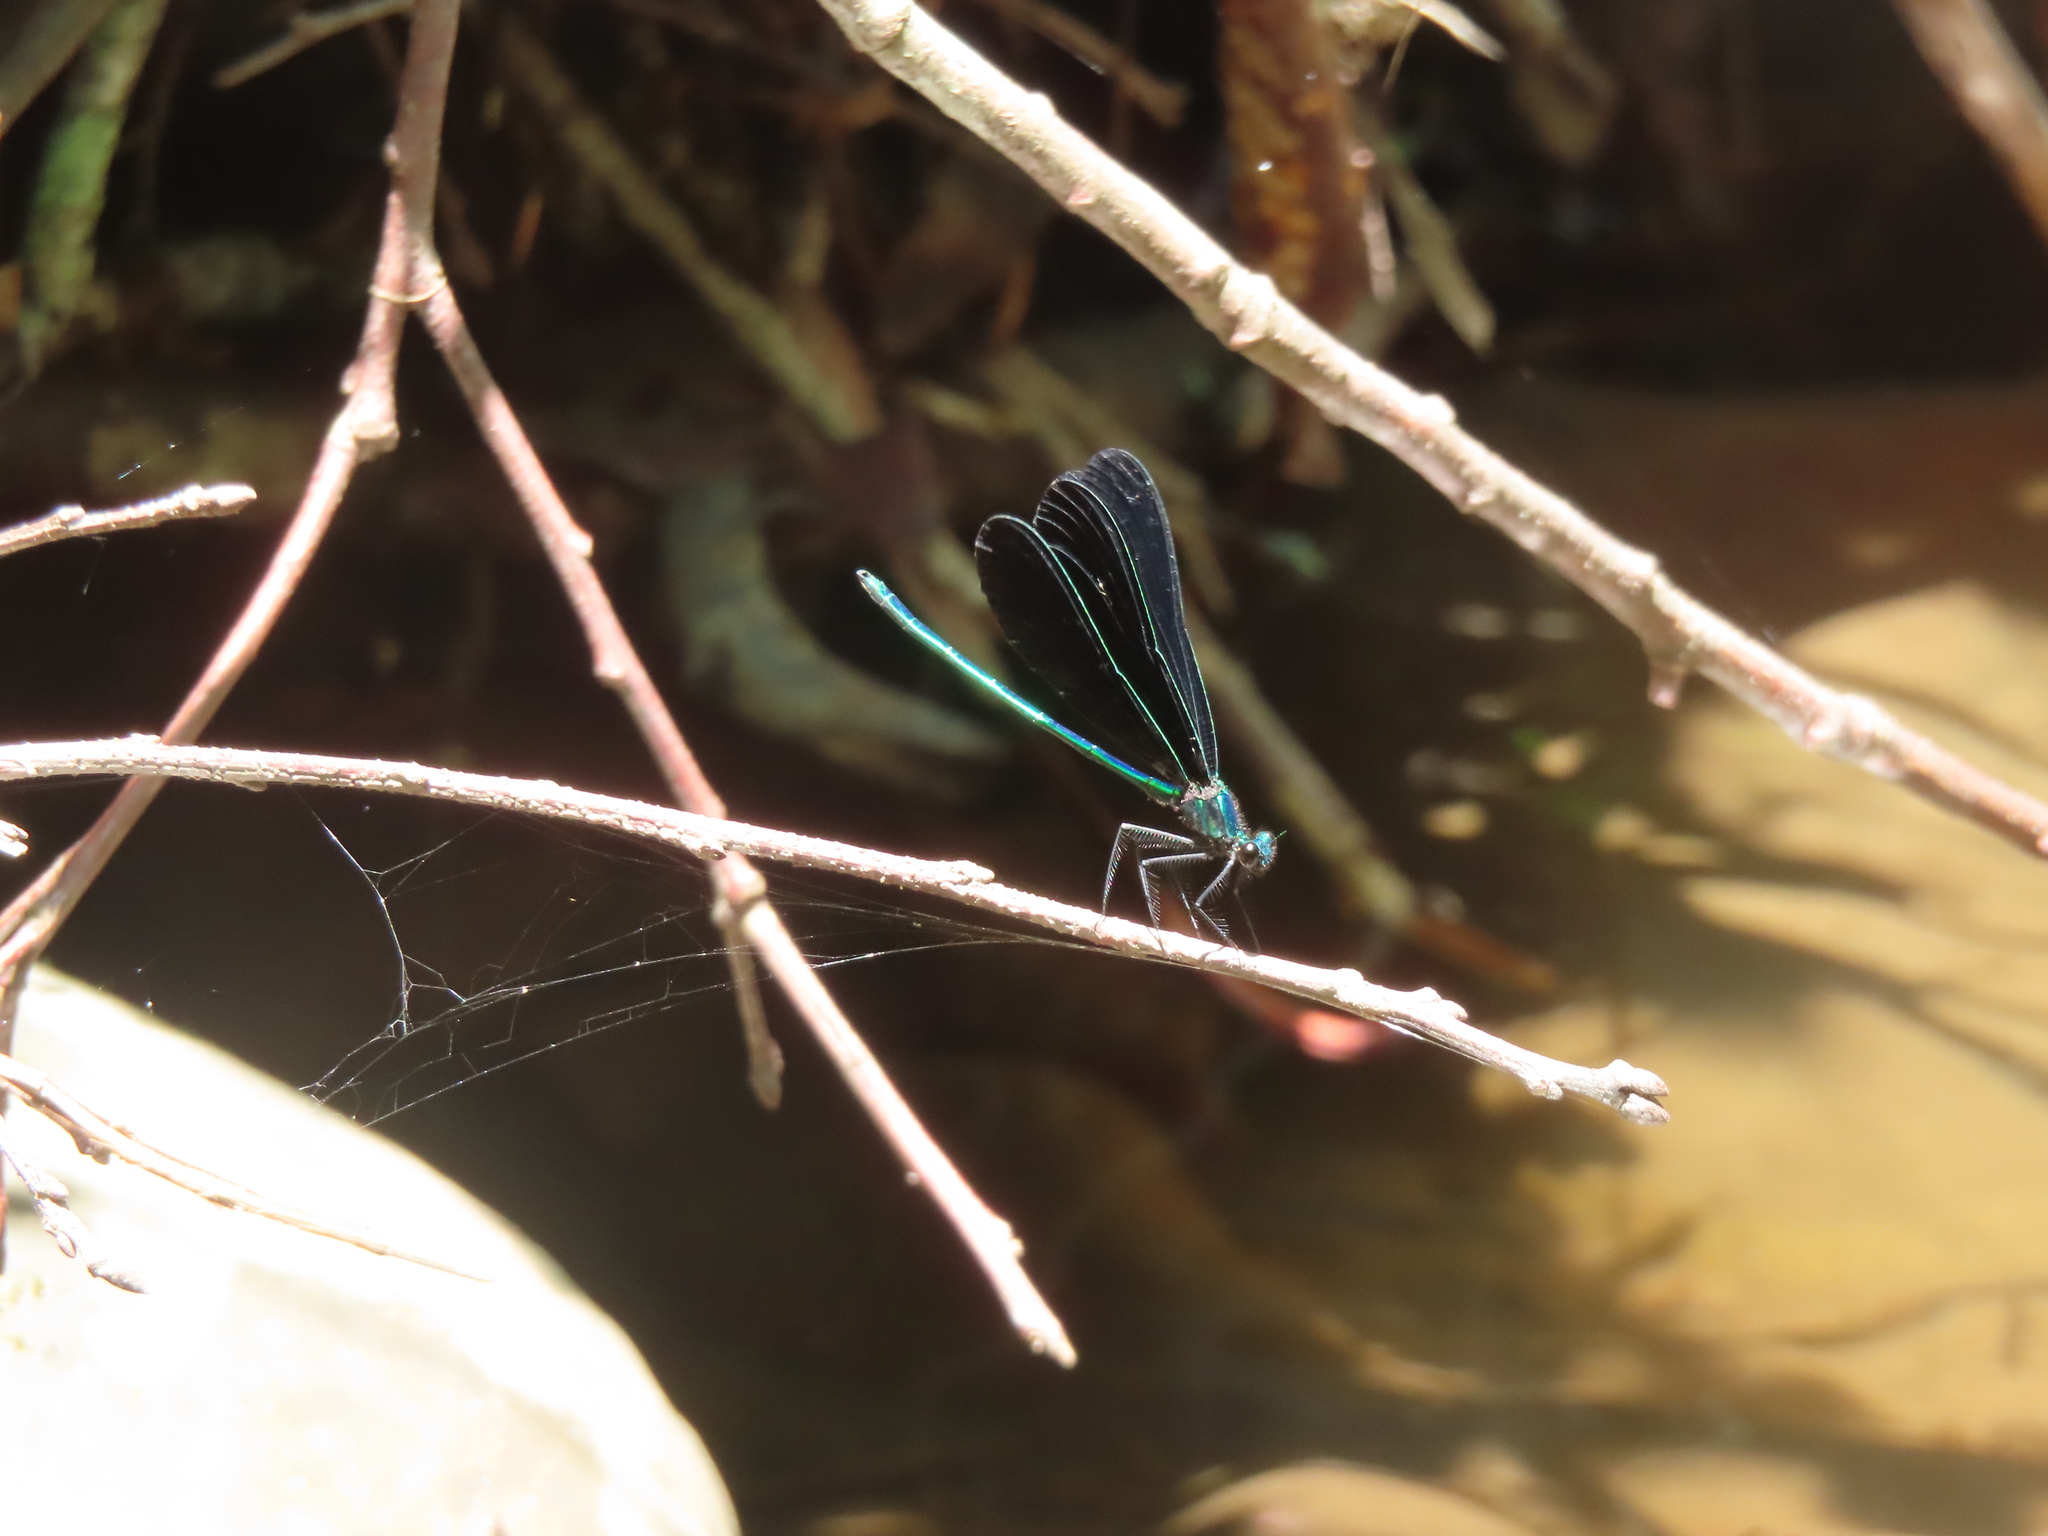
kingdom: Animalia
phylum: Arthropoda
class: Insecta
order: Odonata
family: Calopterygidae
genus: Calopteryx
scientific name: Calopteryx maculata
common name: Ebony jewelwing
